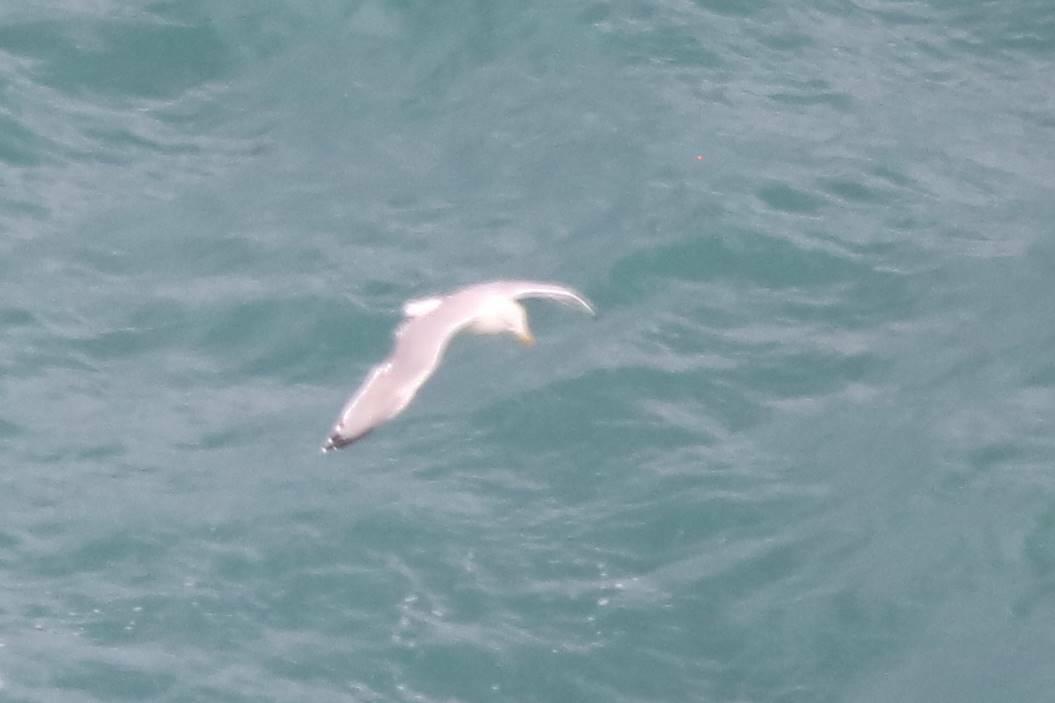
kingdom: Animalia
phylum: Chordata
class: Aves
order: Charadriiformes
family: Laridae
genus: Larus
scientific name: Larus michahellis
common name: Yellow-legged gull
